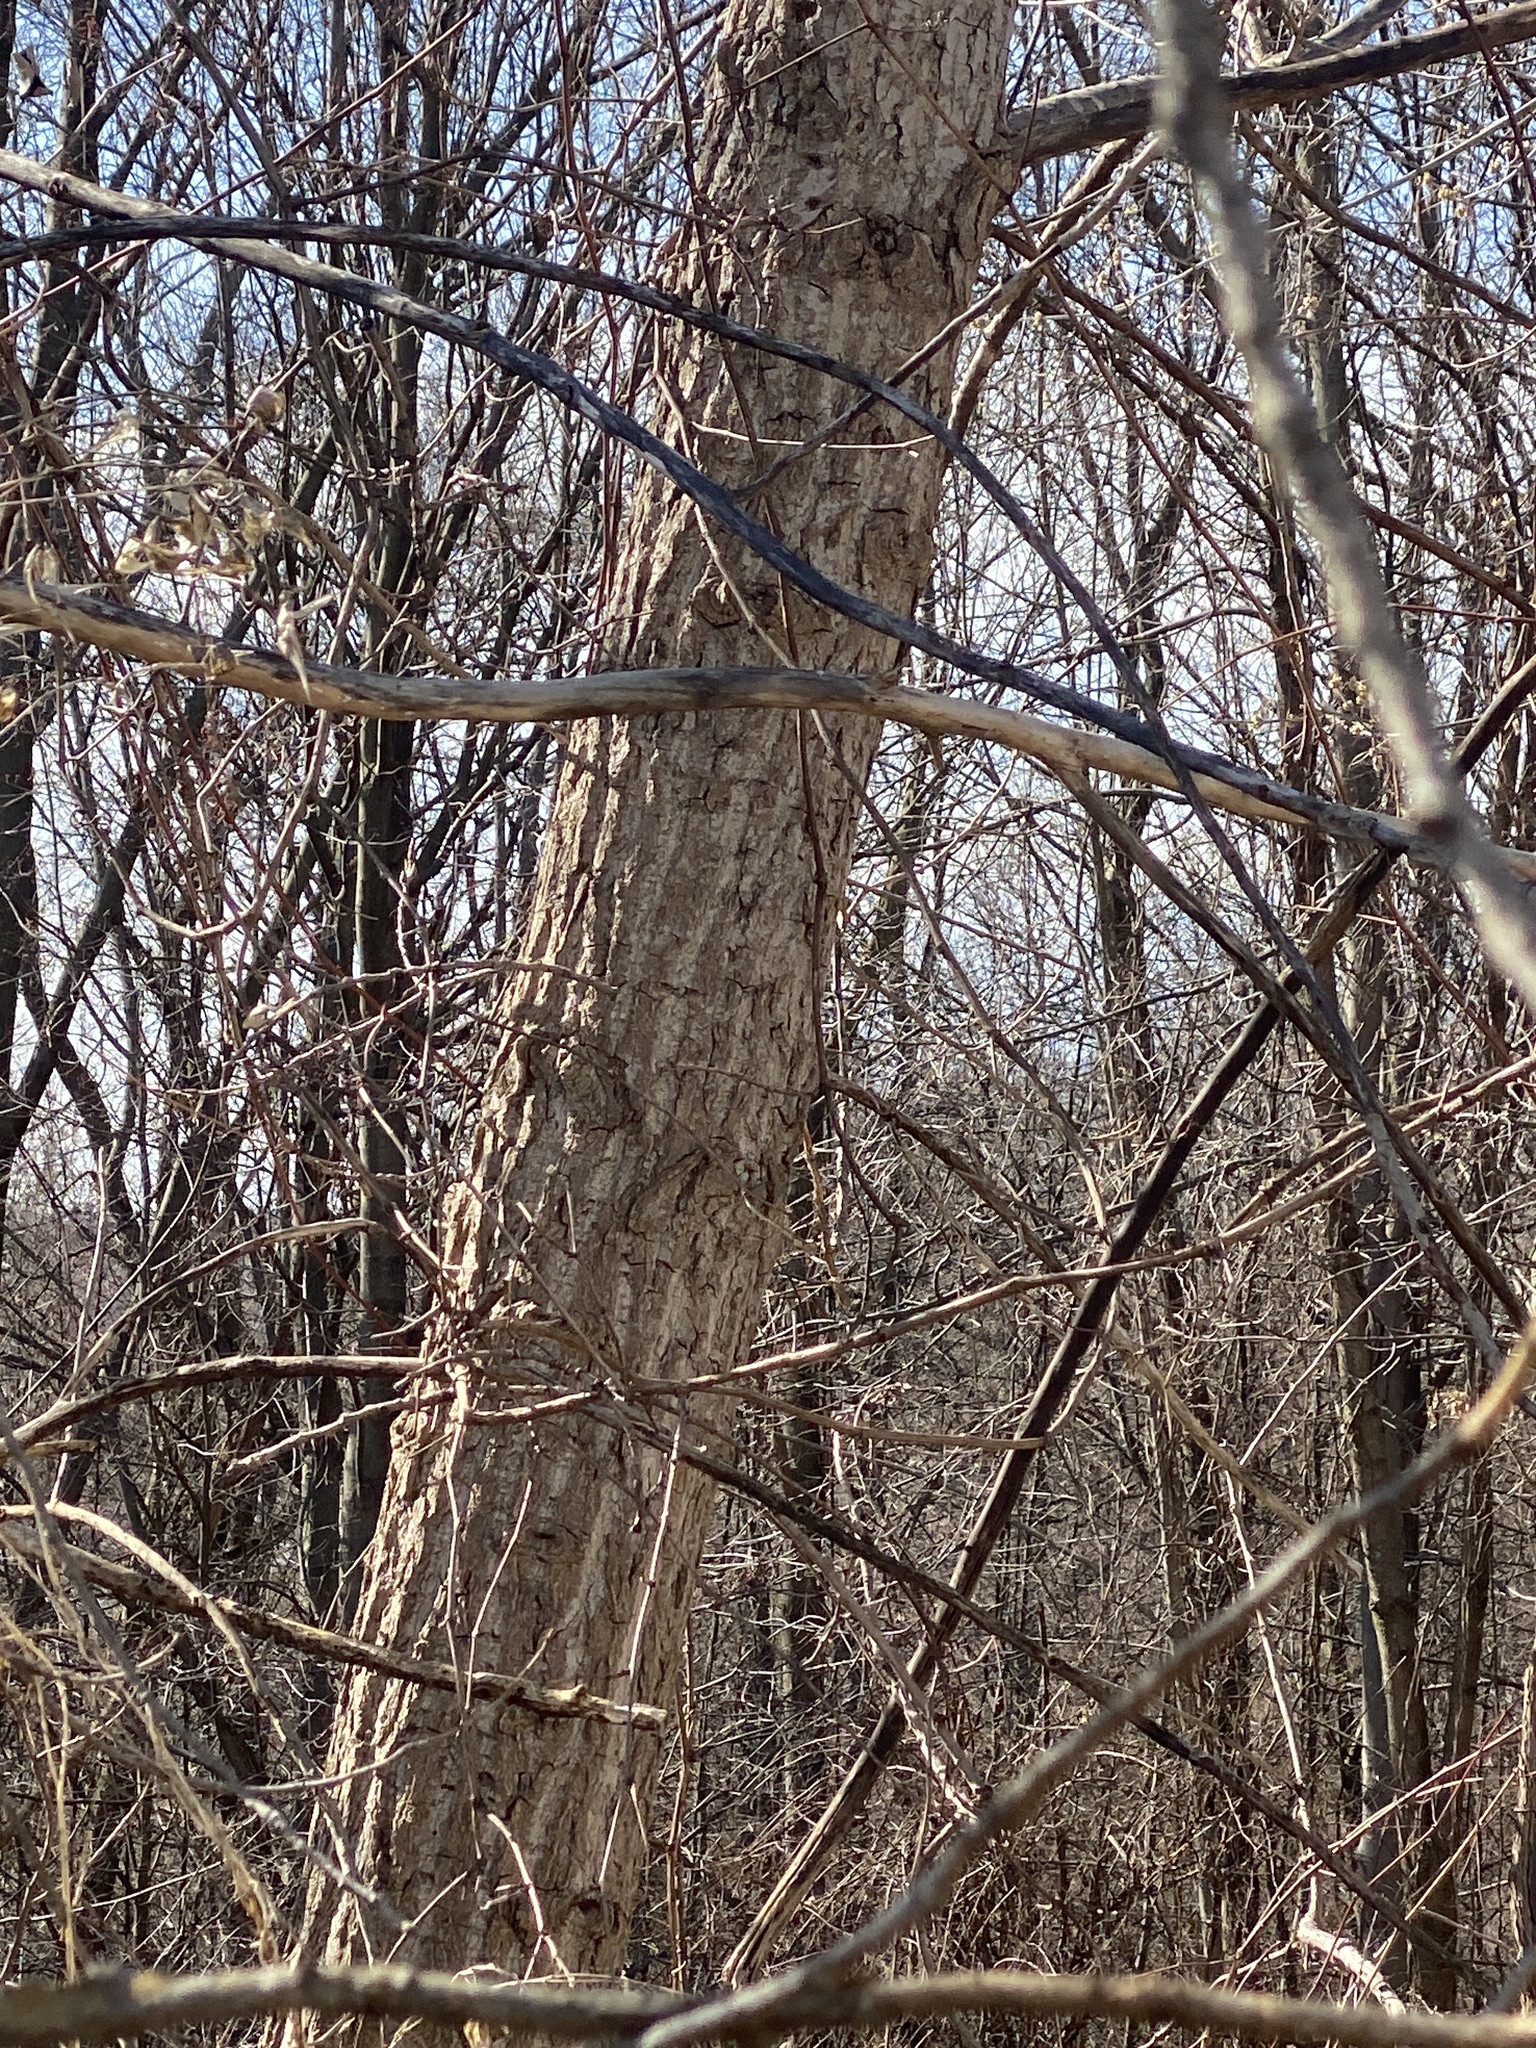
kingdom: Plantae
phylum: Tracheophyta
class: Magnoliopsida
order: Malpighiales
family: Salicaceae
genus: Populus
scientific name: Populus deltoides
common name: Eastern cottonwood
